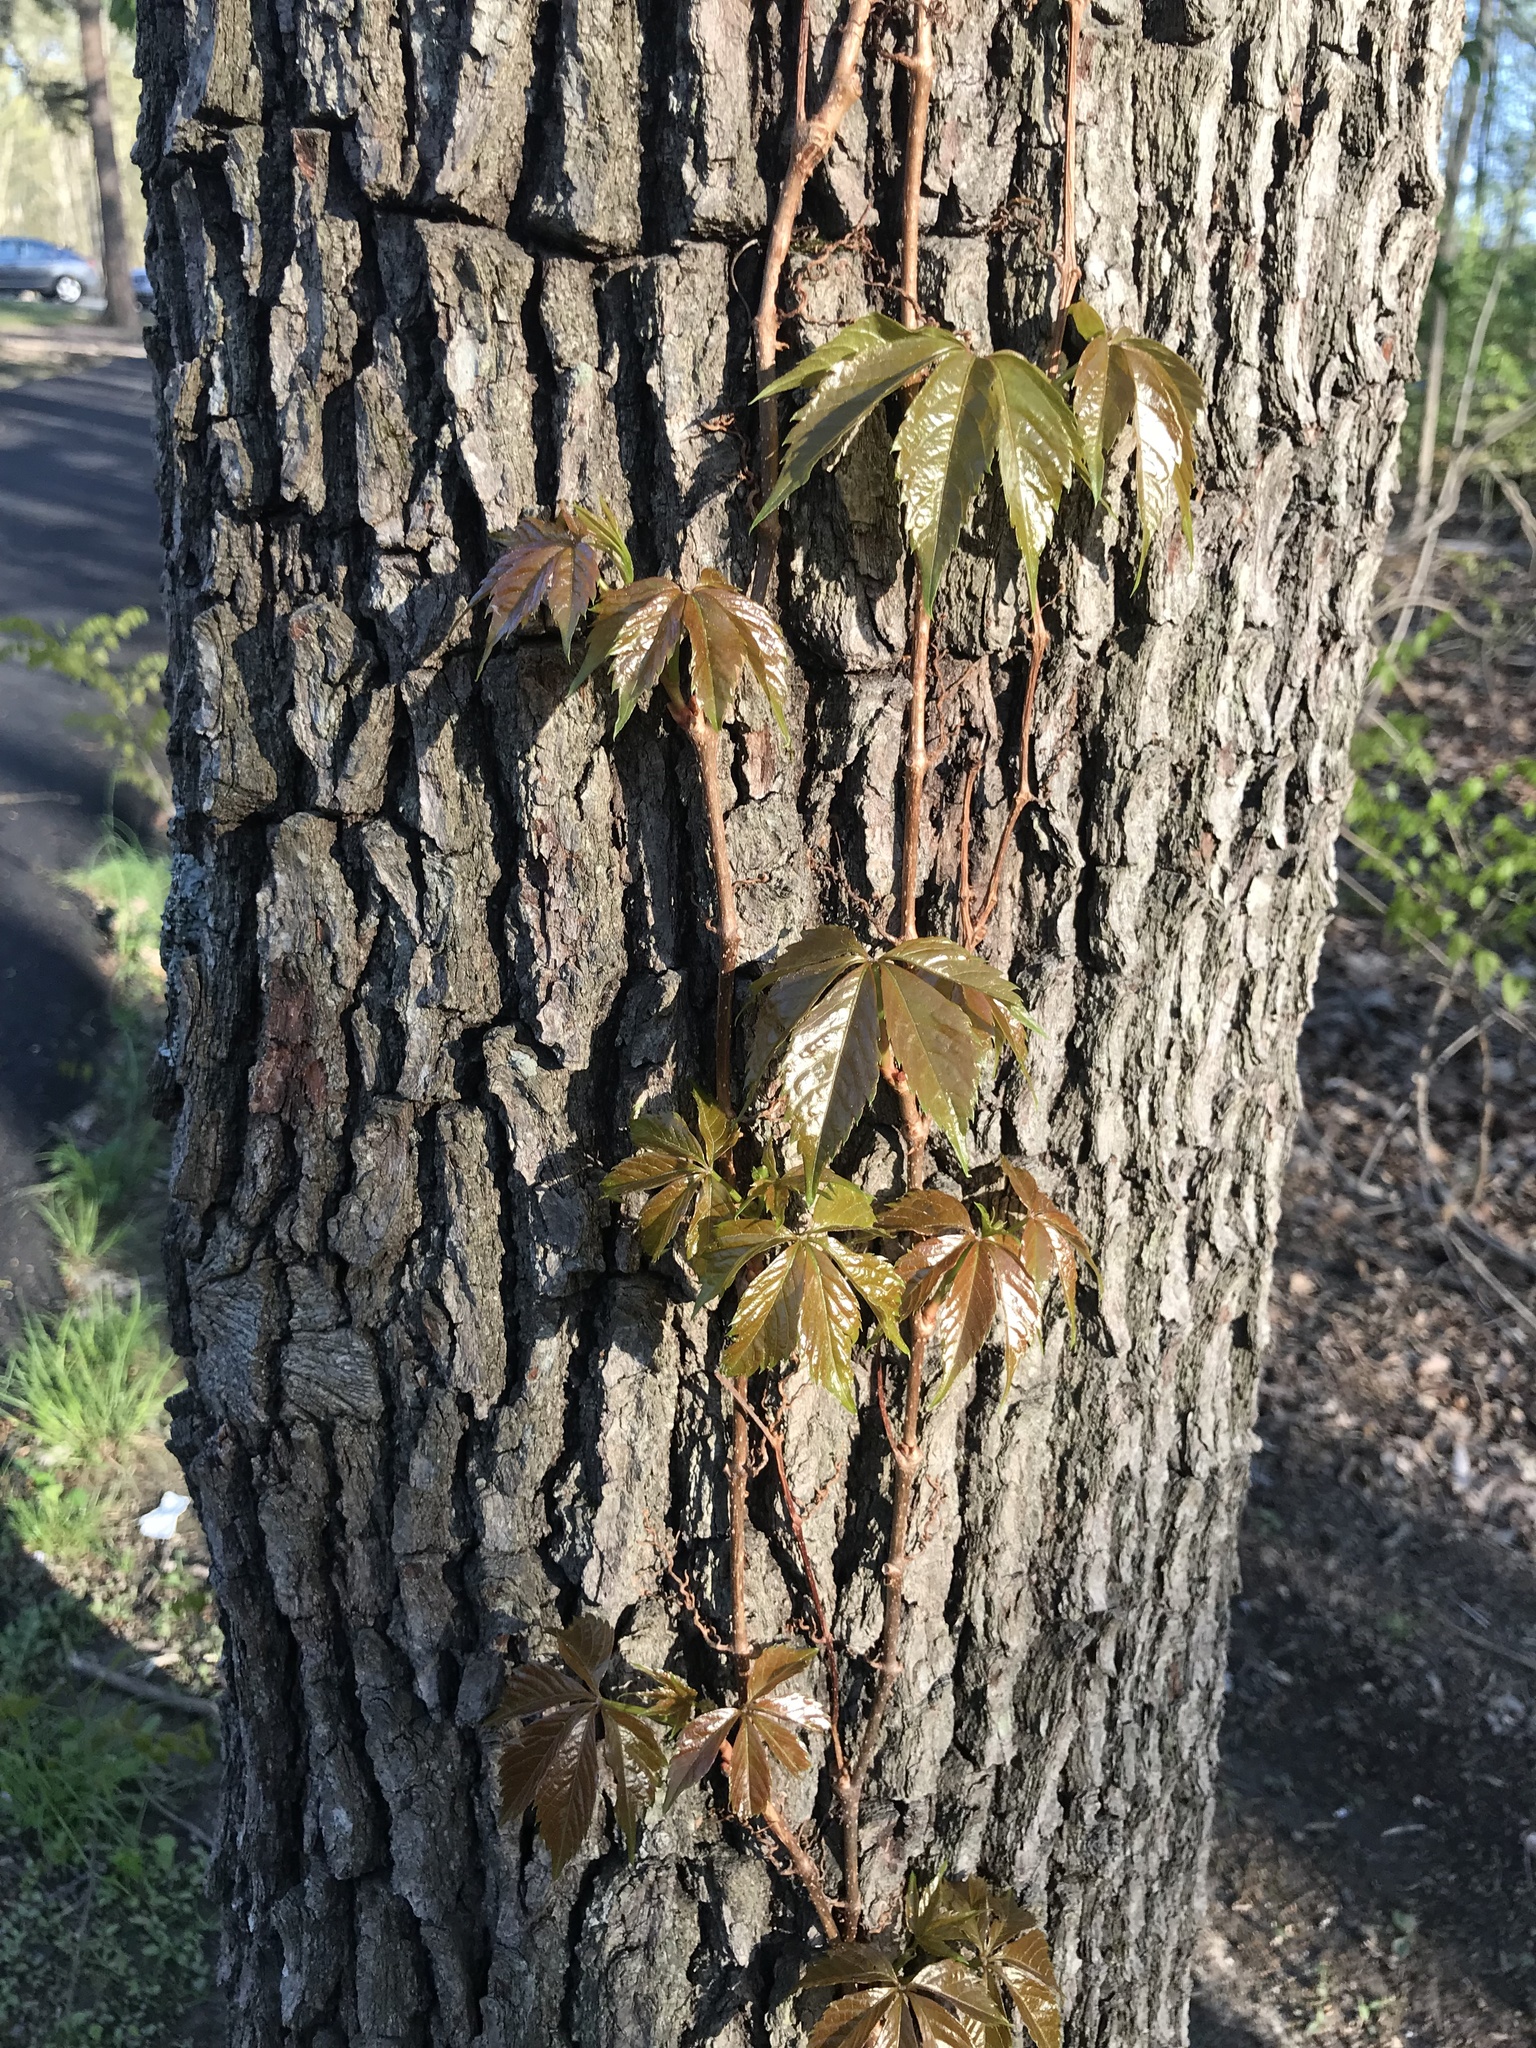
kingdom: Plantae
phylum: Tracheophyta
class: Magnoliopsida
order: Vitales
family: Vitaceae
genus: Parthenocissus
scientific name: Parthenocissus quinquefolia
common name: Virginia-creeper
